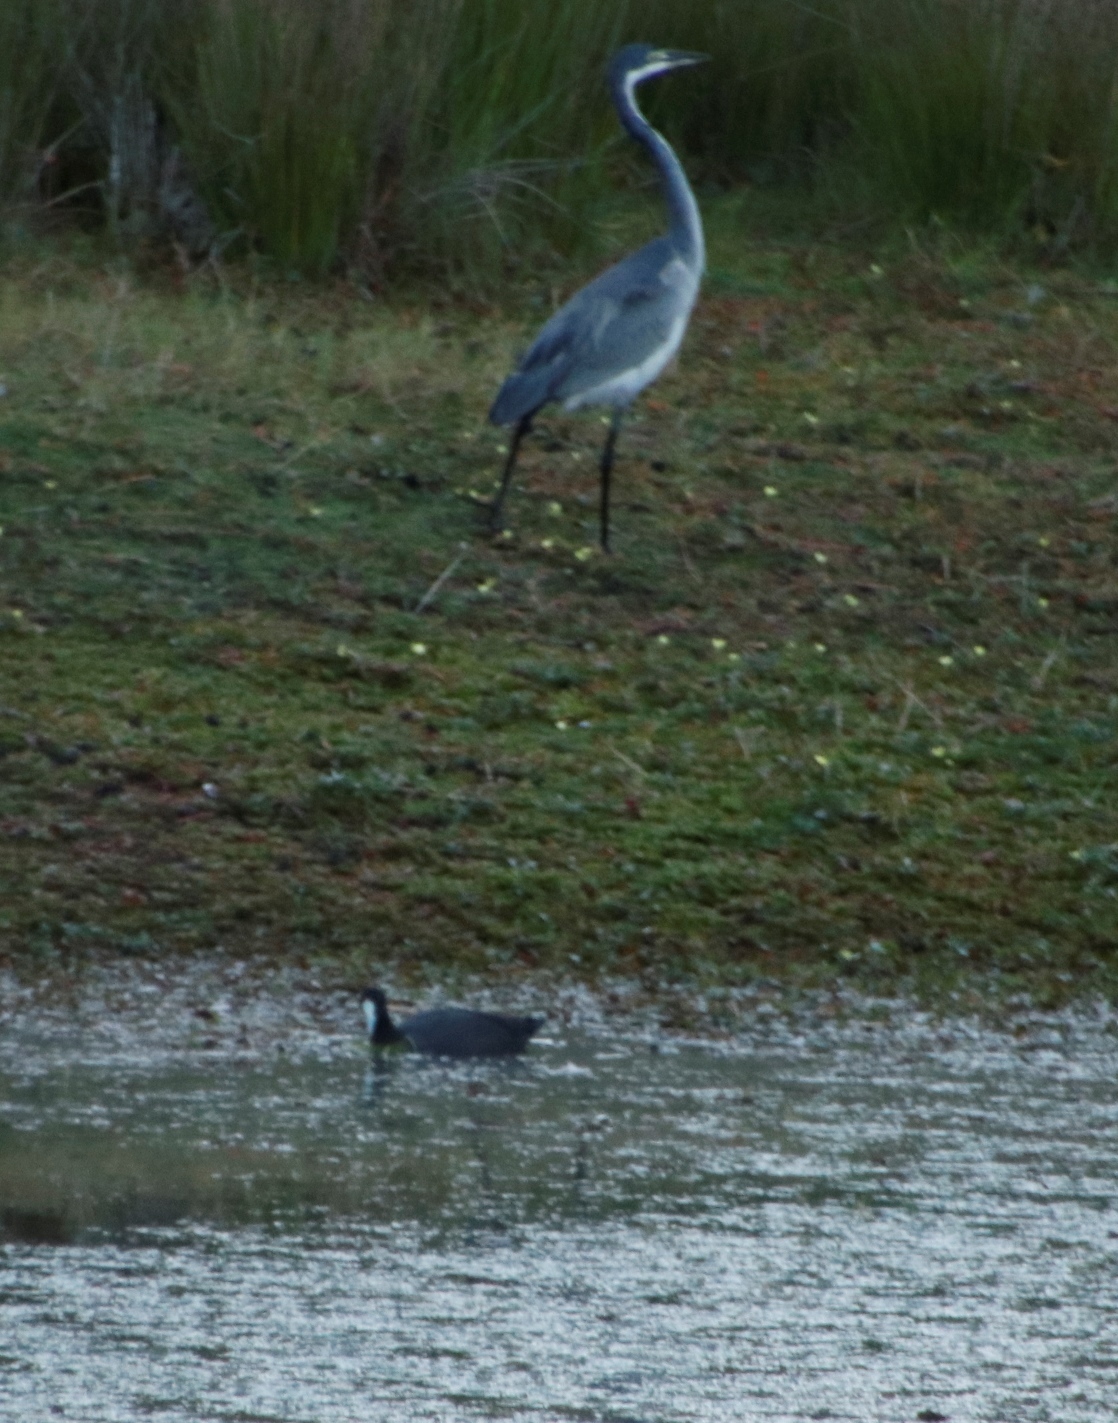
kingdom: Animalia
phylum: Chordata
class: Aves
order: Pelecaniformes
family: Ardeidae
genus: Ardea
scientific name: Ardea melanocephala
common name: Black-headed heron
